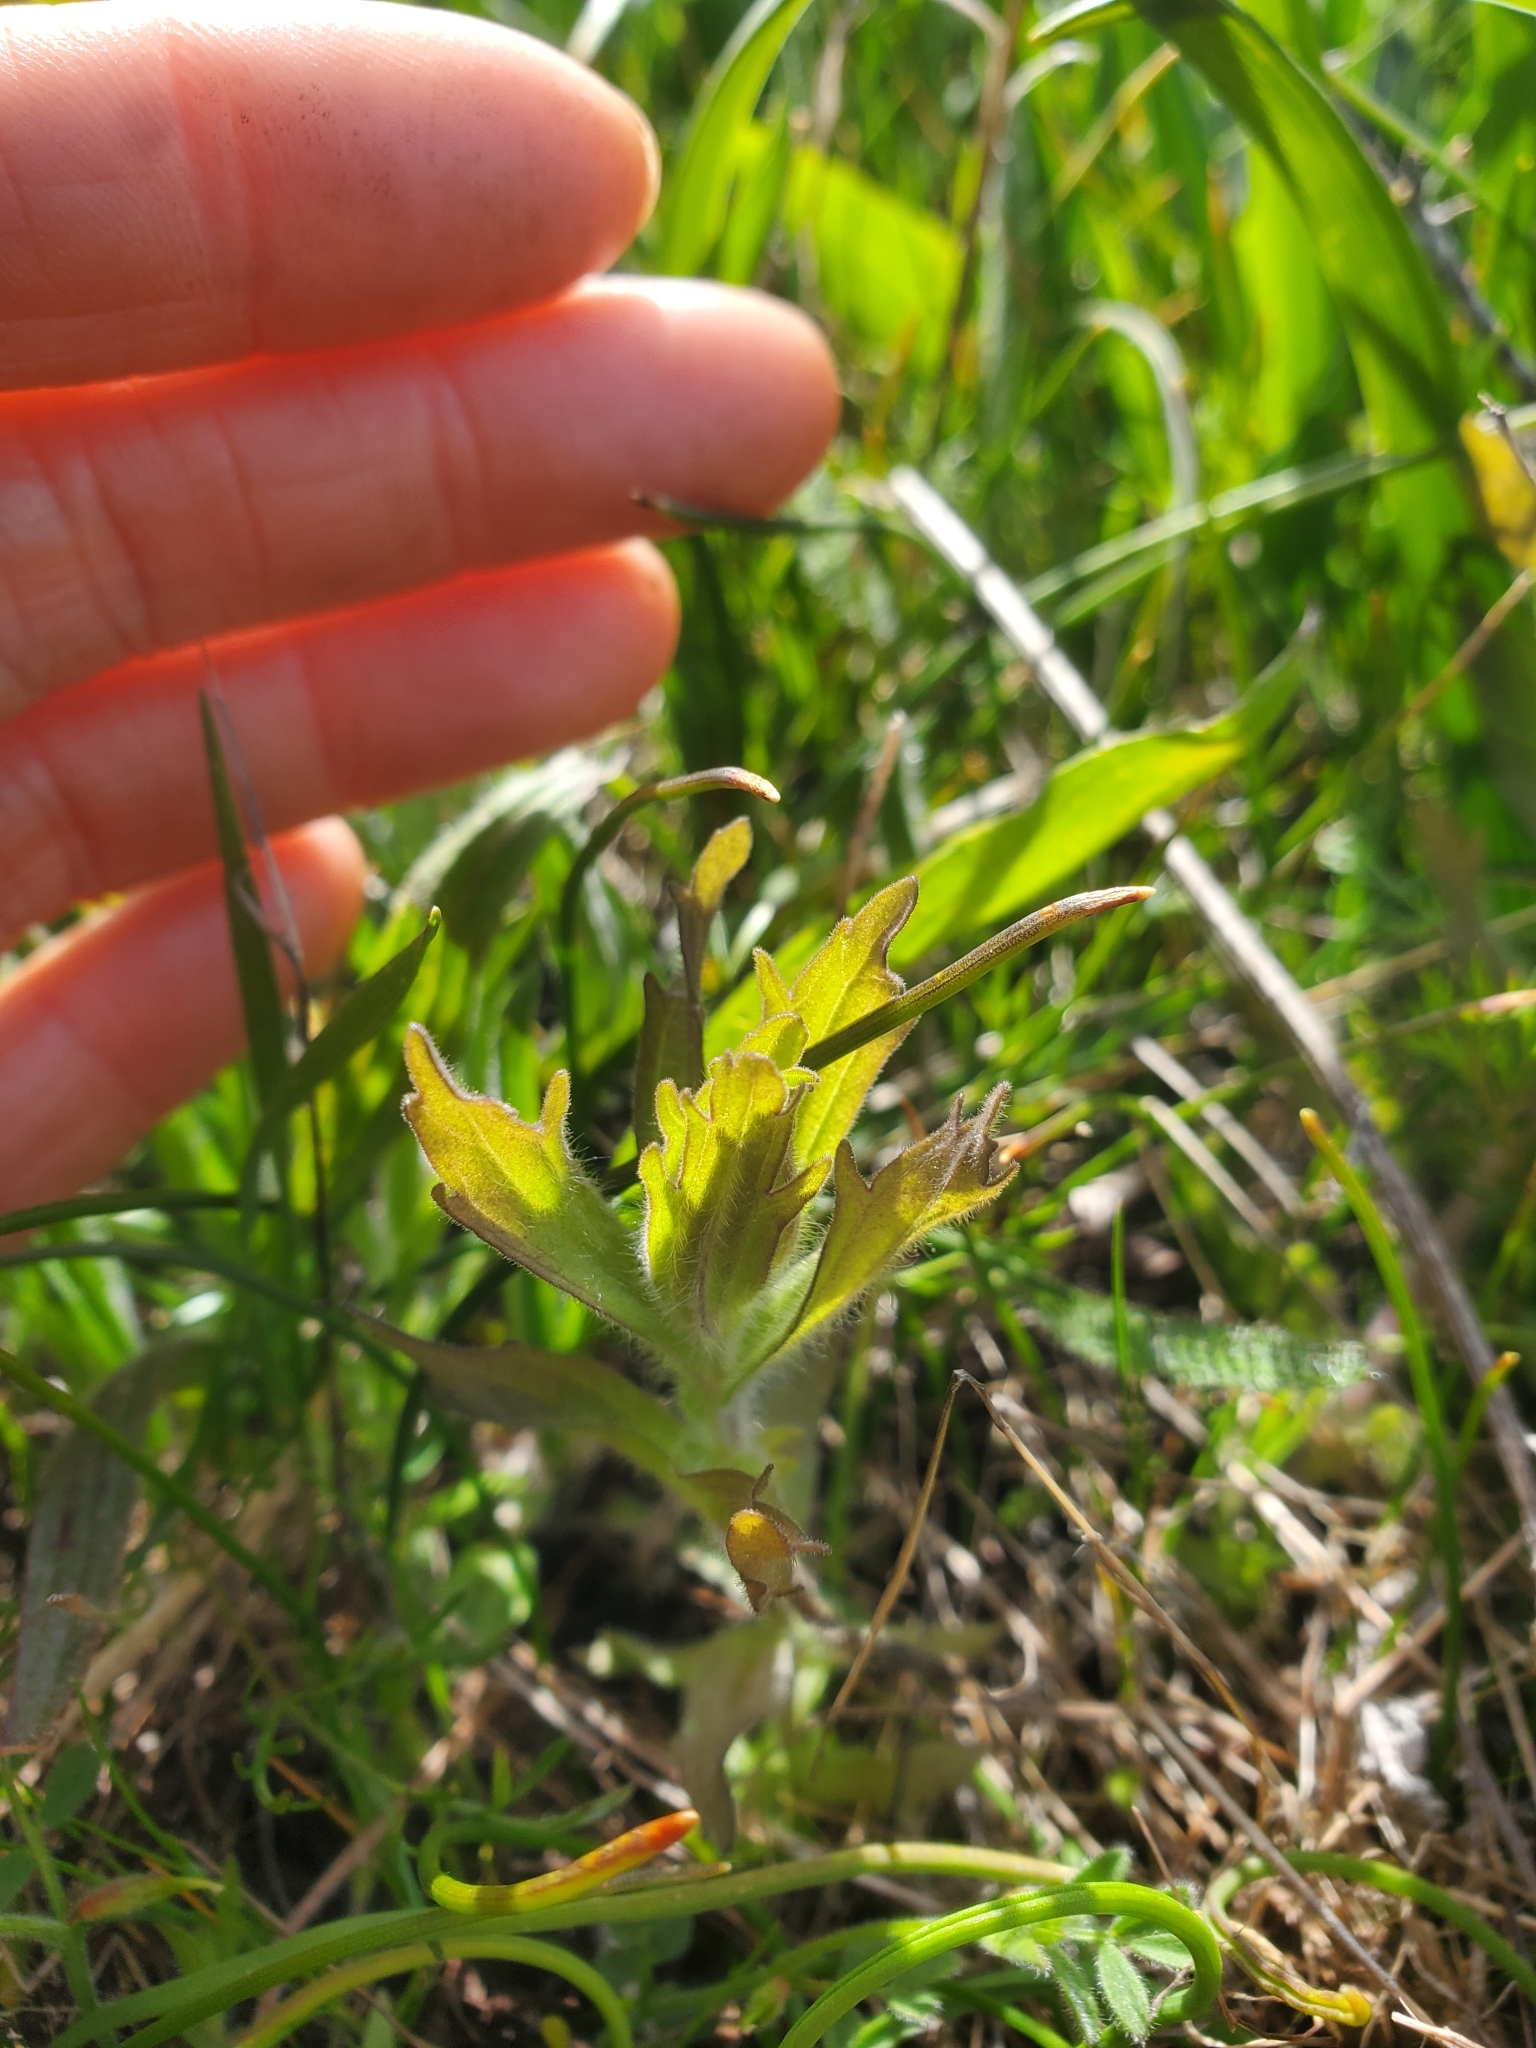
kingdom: Plantae
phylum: Tracheophyta
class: Magnoliopsida
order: Lamiales
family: Orobanchaceae
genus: Castilleja
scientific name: Castilleja levisecta
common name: Golden paintbrush
